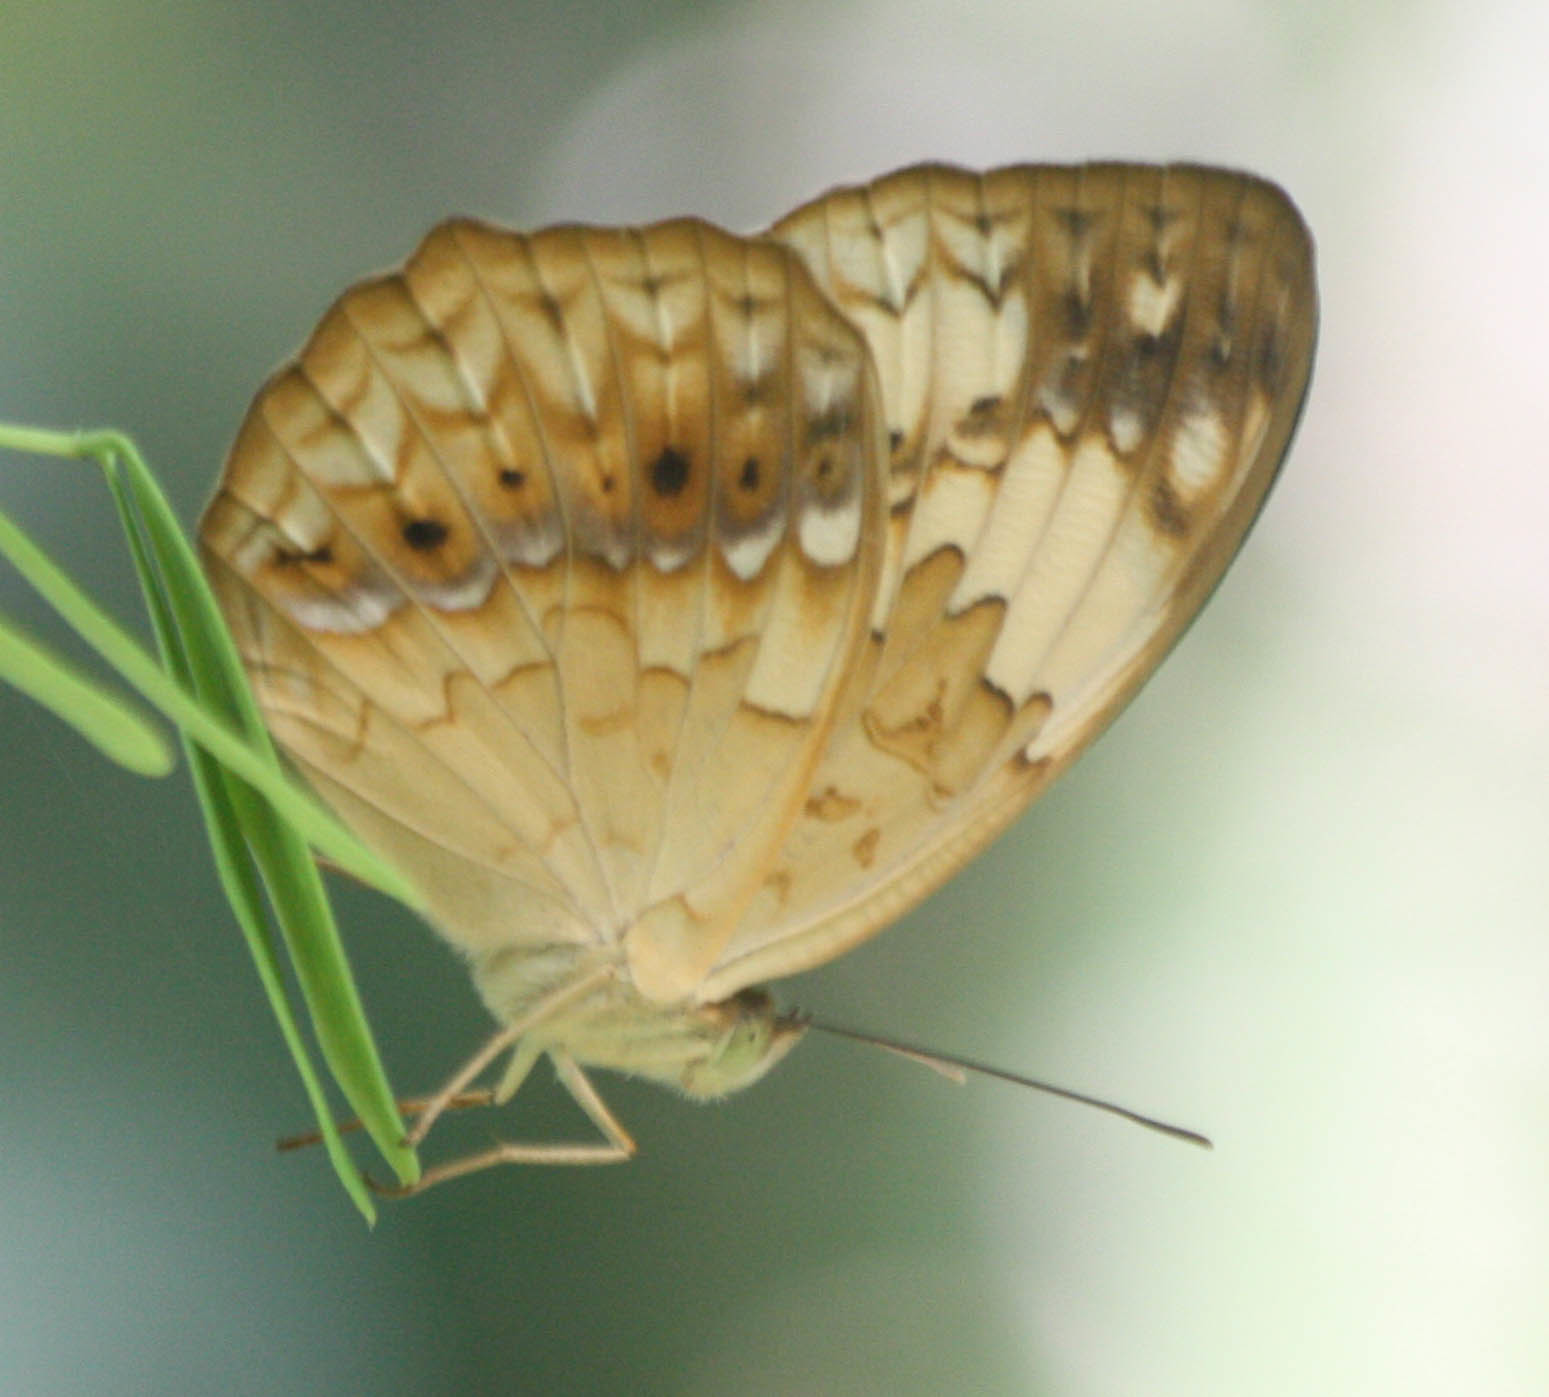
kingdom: Animalia
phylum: Arthropoda
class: Insecta
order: Lepidoptera
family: Nymphalidae
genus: Cupha
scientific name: Cupha erymanthis
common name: Rustic
